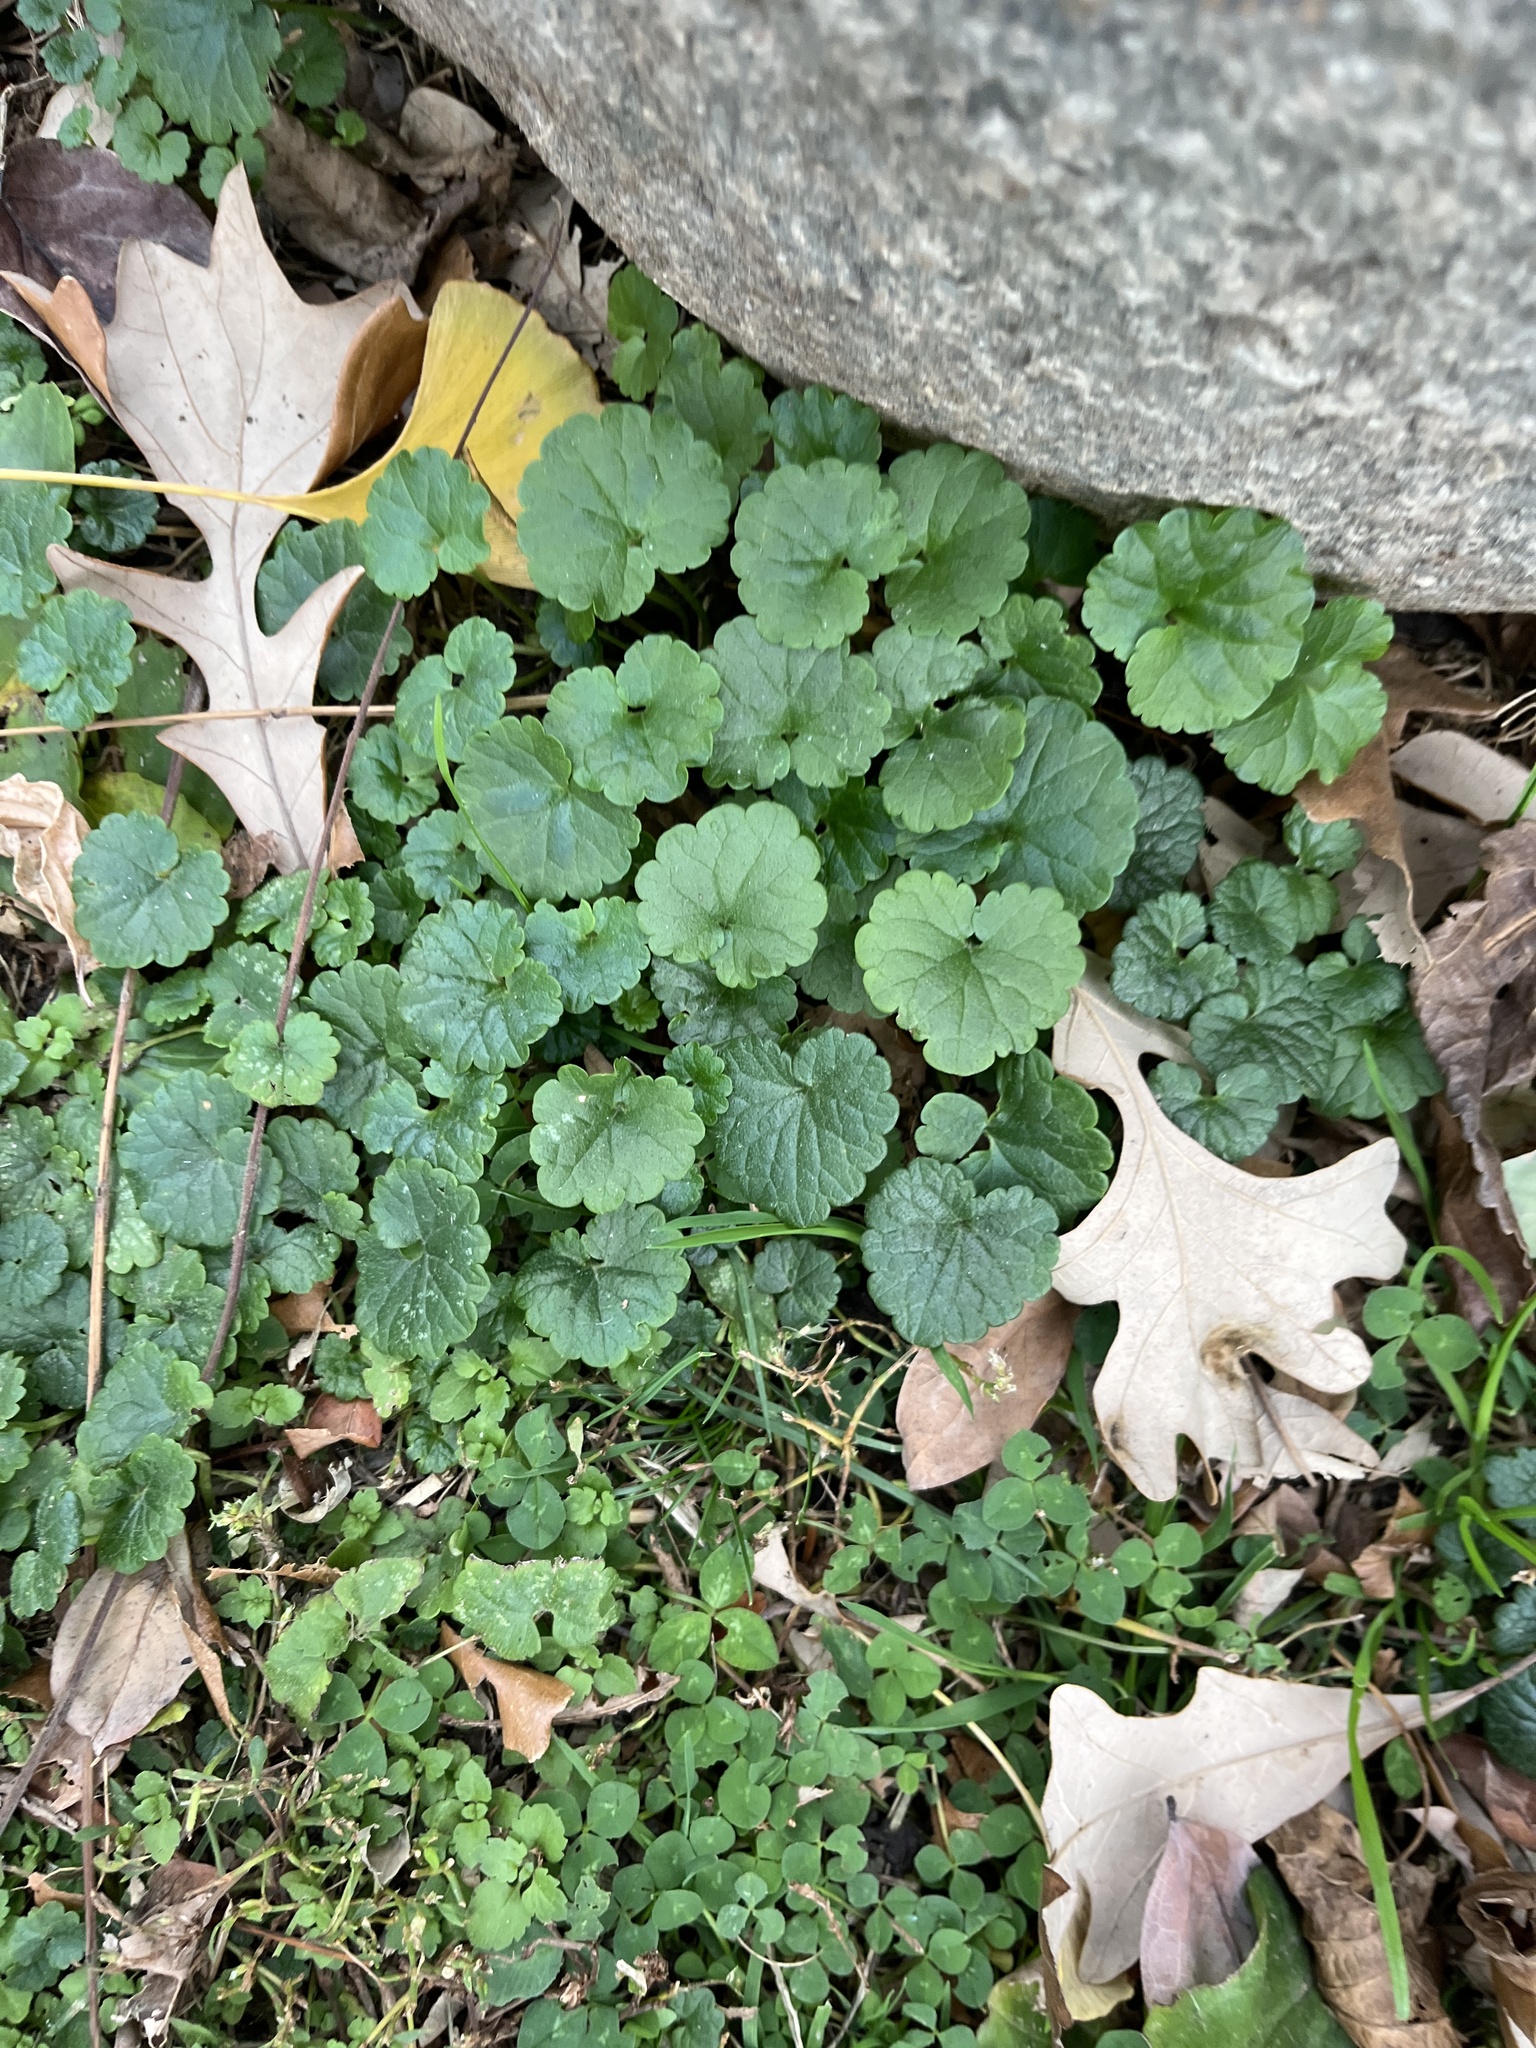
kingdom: Plantae
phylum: Tracheophyta
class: Magnoliopsida
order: Lamiales
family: Lamiaceae
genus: Glechoma
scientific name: Glechoma hederacea
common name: Ground ivy
